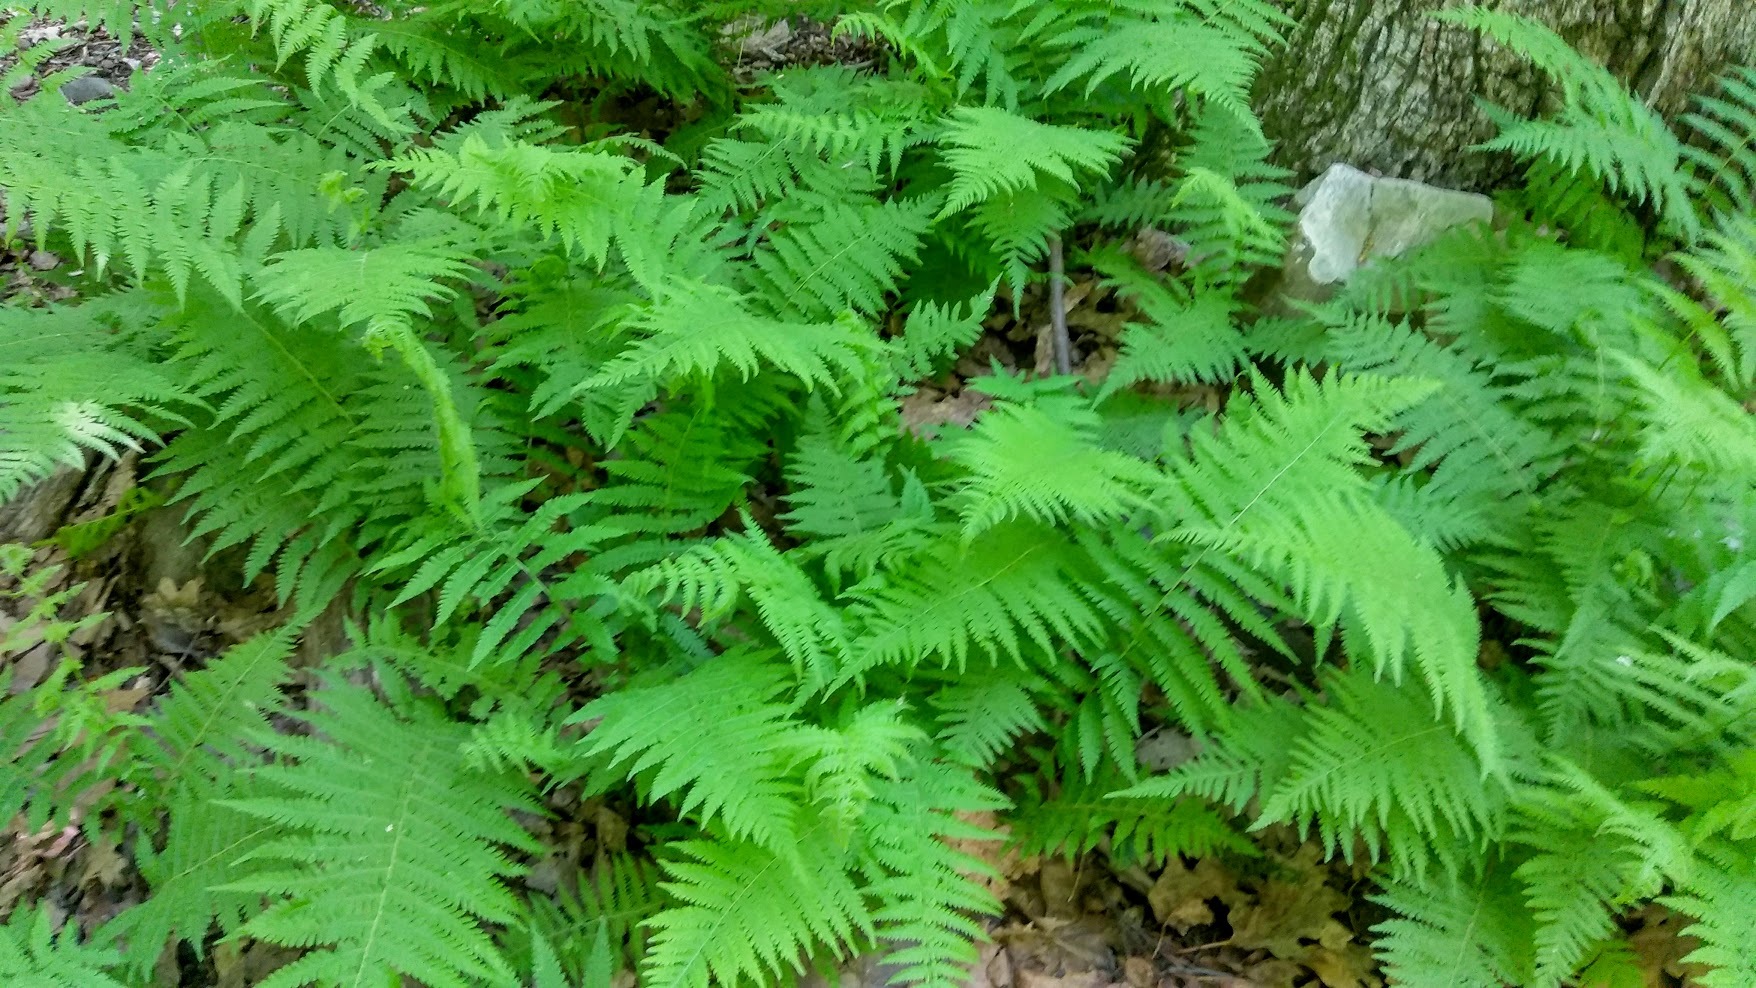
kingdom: Plantae
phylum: Tracheophyta
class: Polypodiopsida
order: Polypodiales
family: Thelypteridaceae
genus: Amauropelta
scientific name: Amauropelta noveboracensis
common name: New york fern
